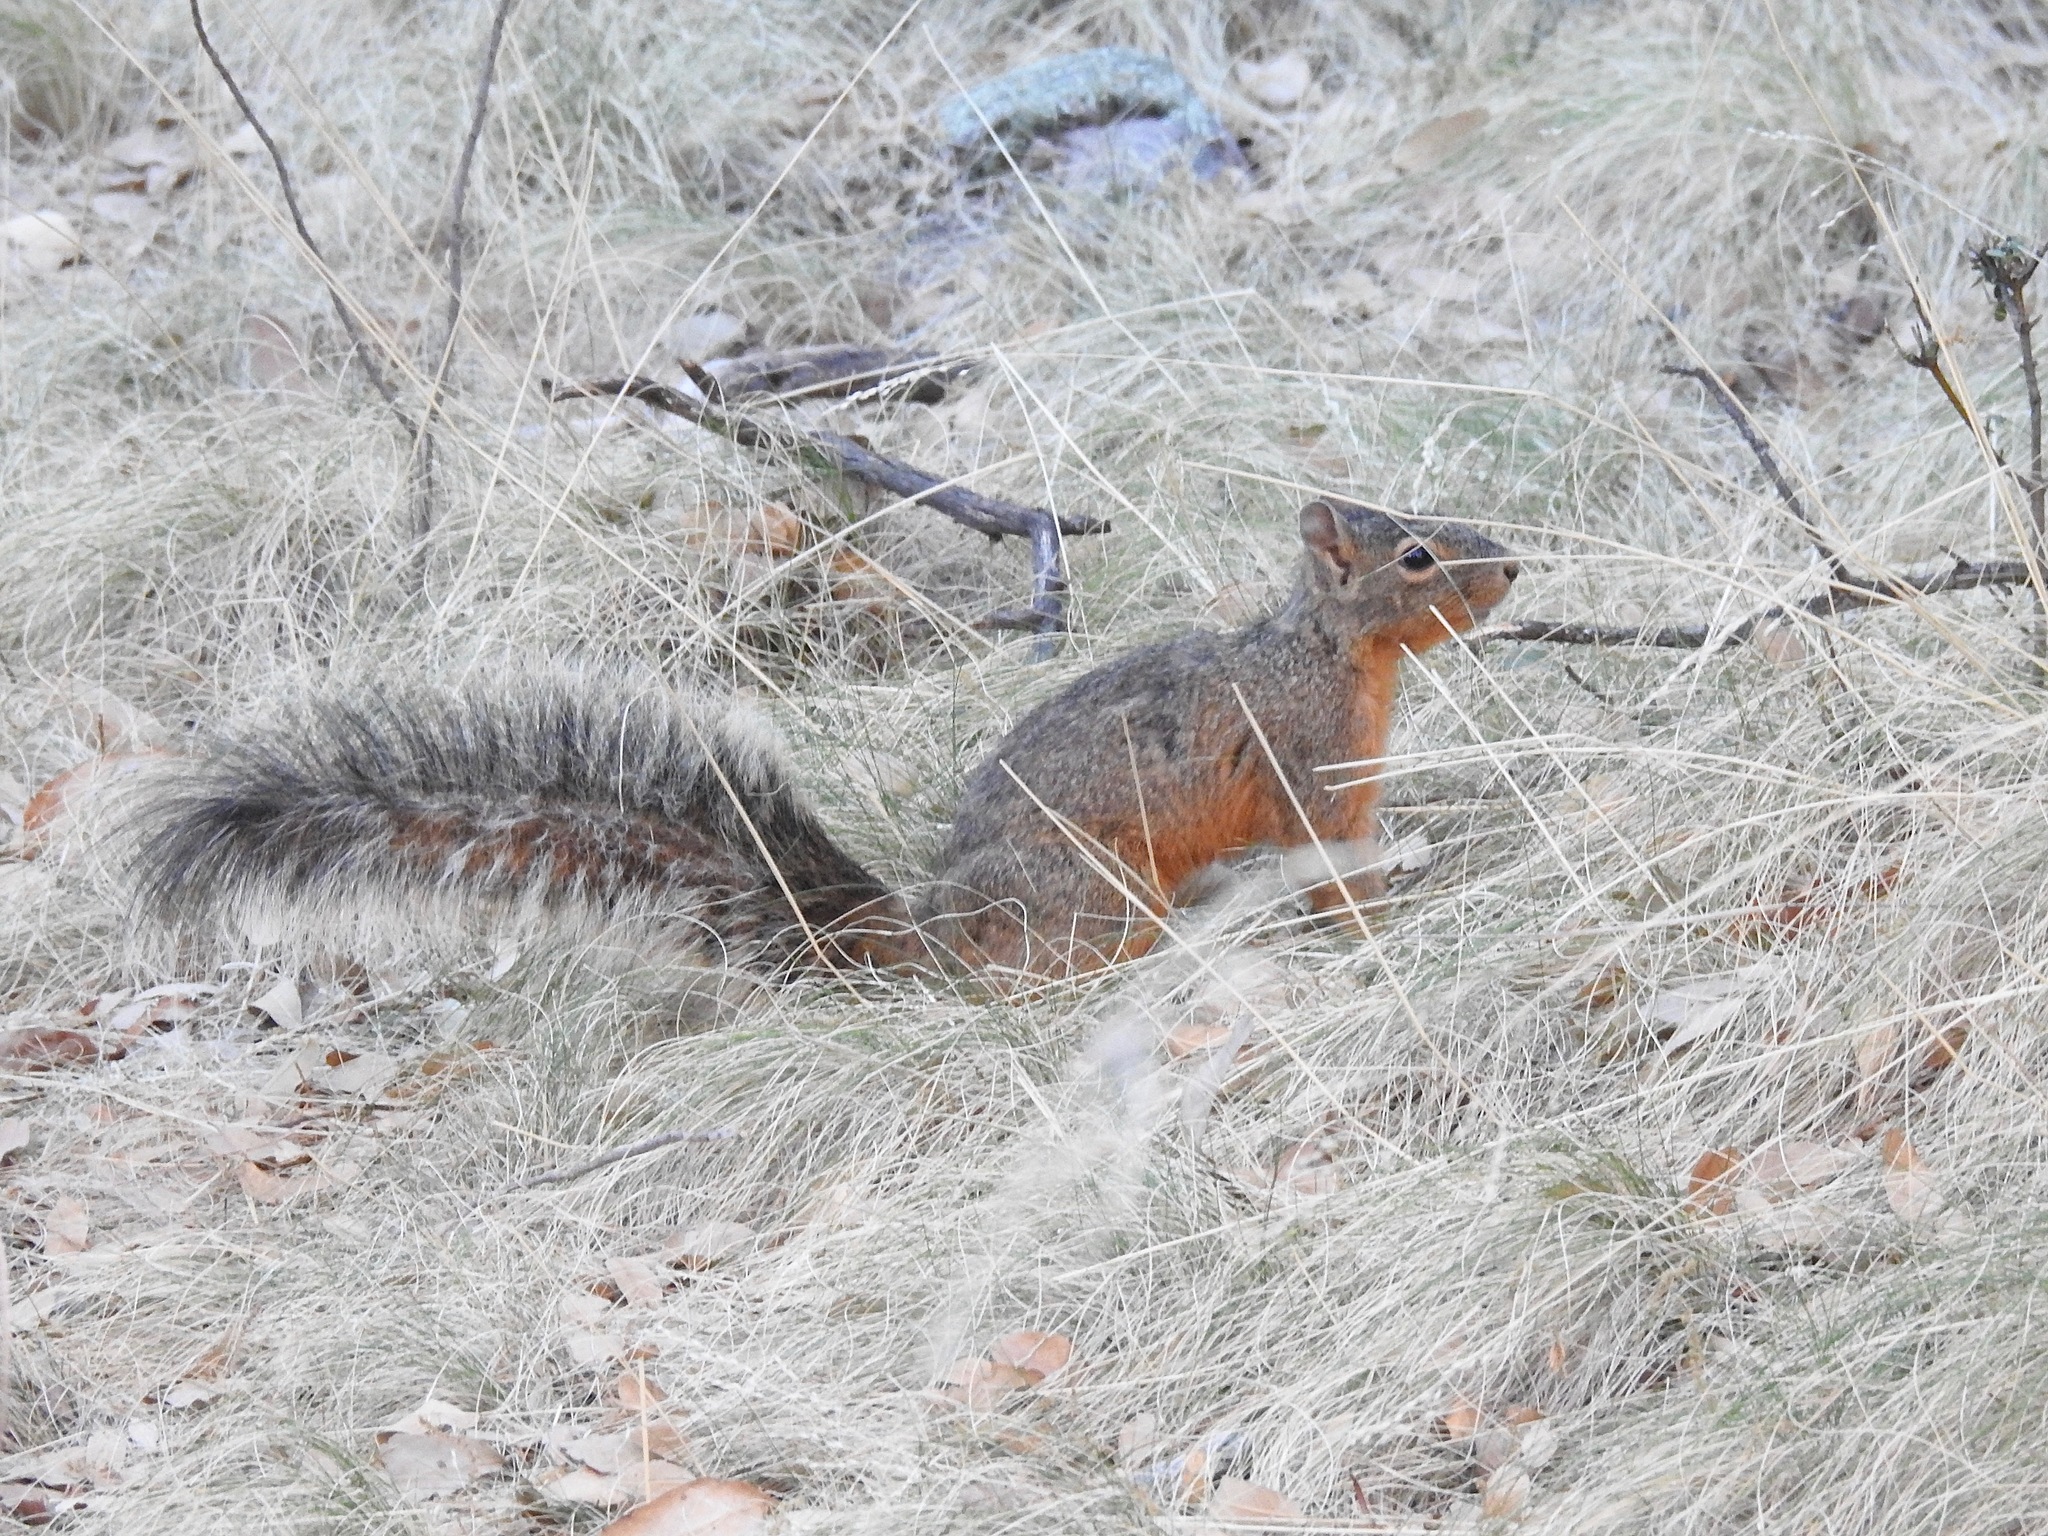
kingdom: Animalia
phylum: Chordata
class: Mammalia
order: Rodentia
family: Sciuridae
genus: Sciurus
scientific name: Sciurus nayaritensis
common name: Mexican fox squirrel
